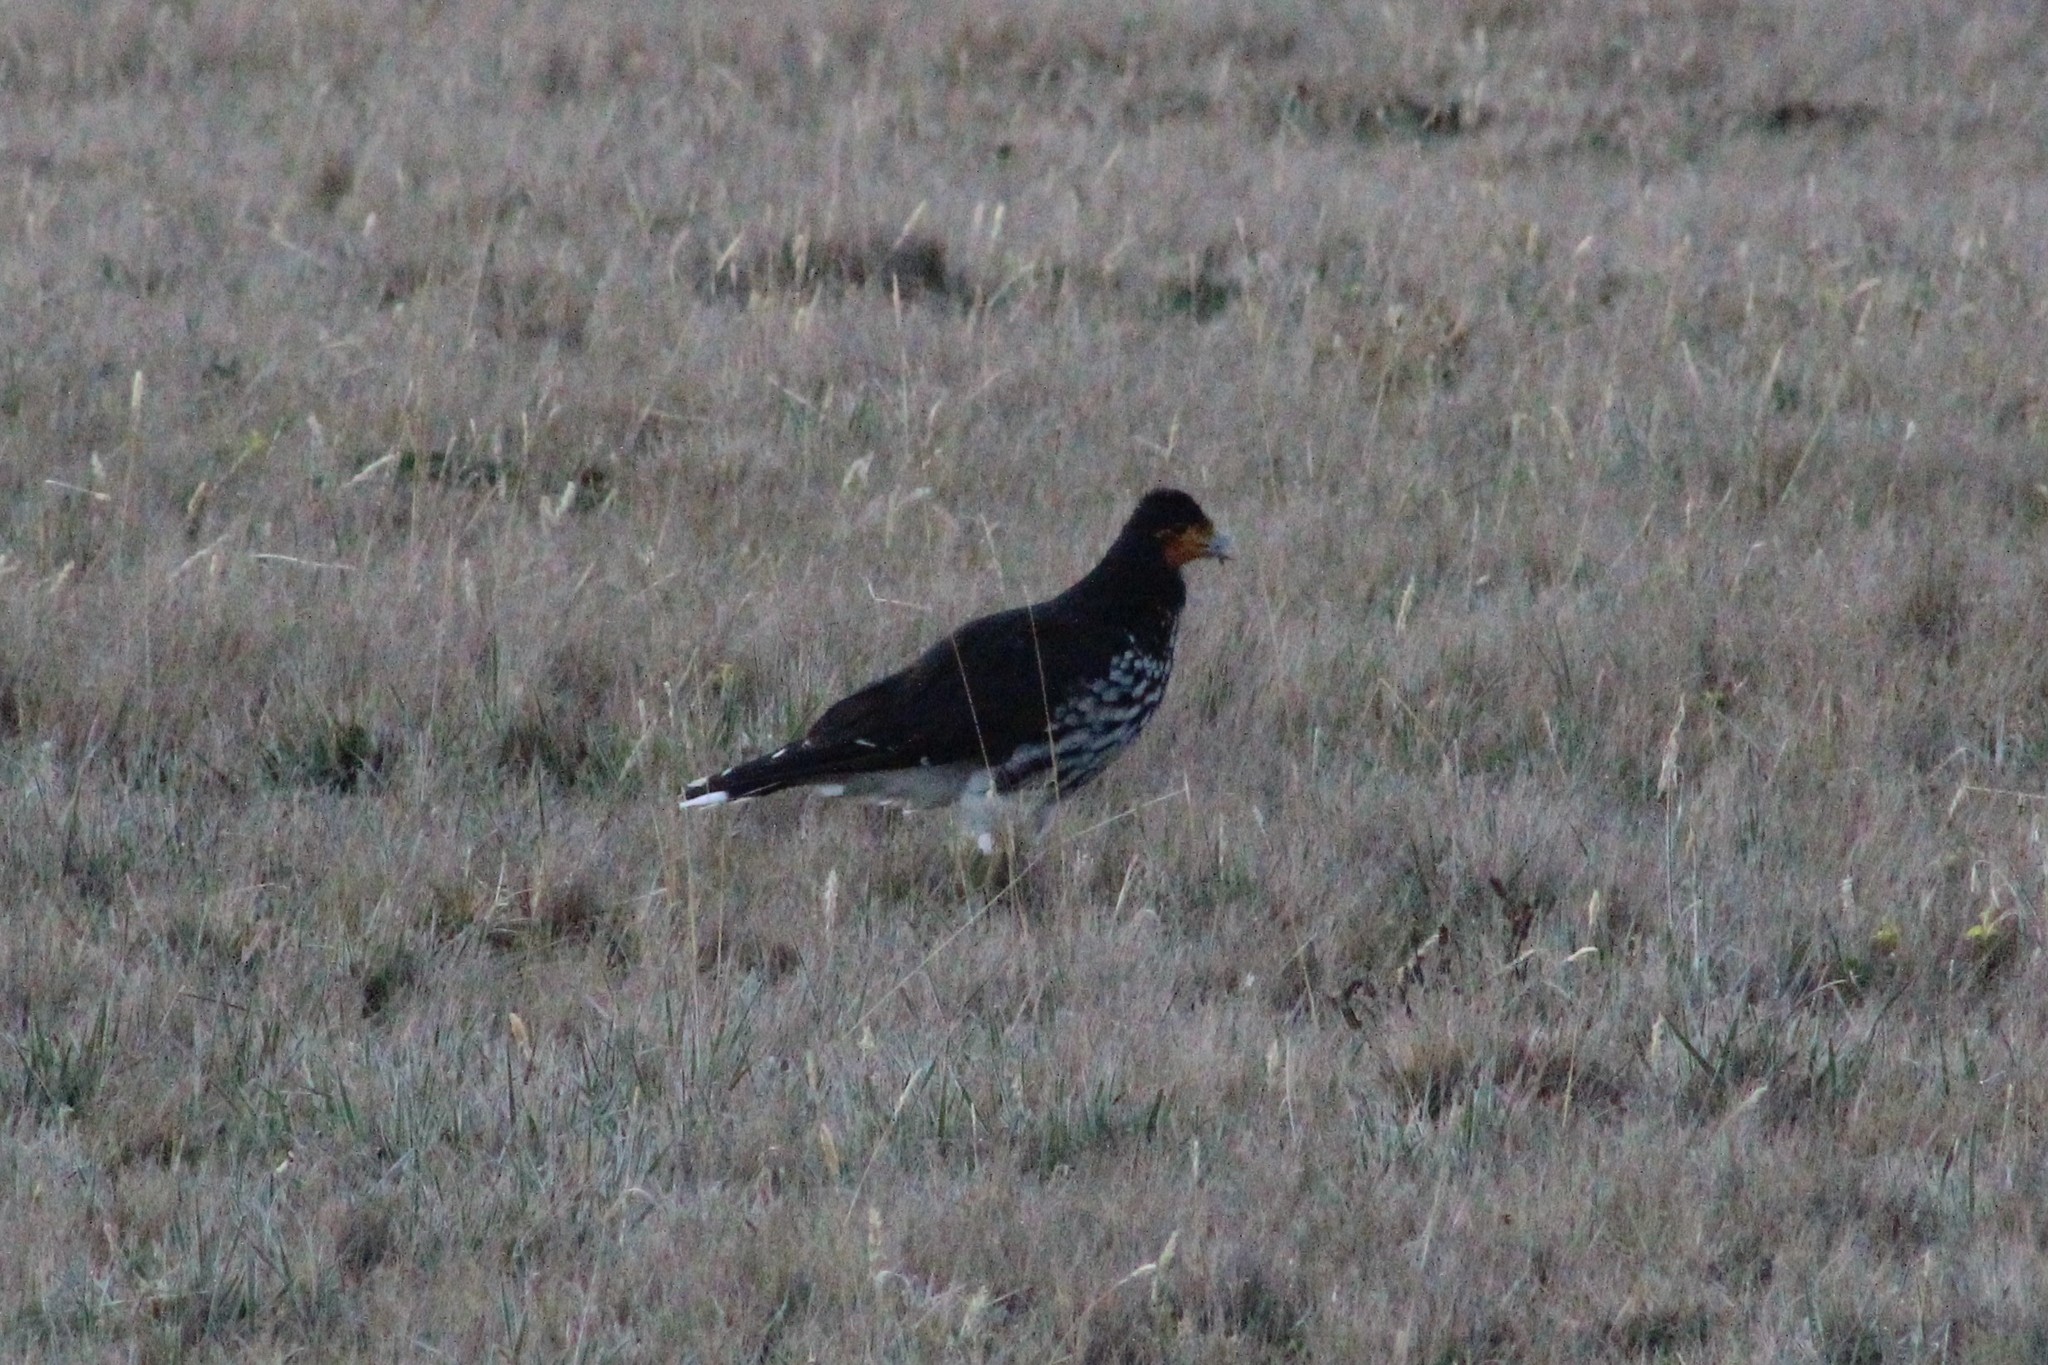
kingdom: Animalia
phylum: Chordata
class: Aves
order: Falconiformes
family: Falconidae
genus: Daptrius
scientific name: Daptrius
